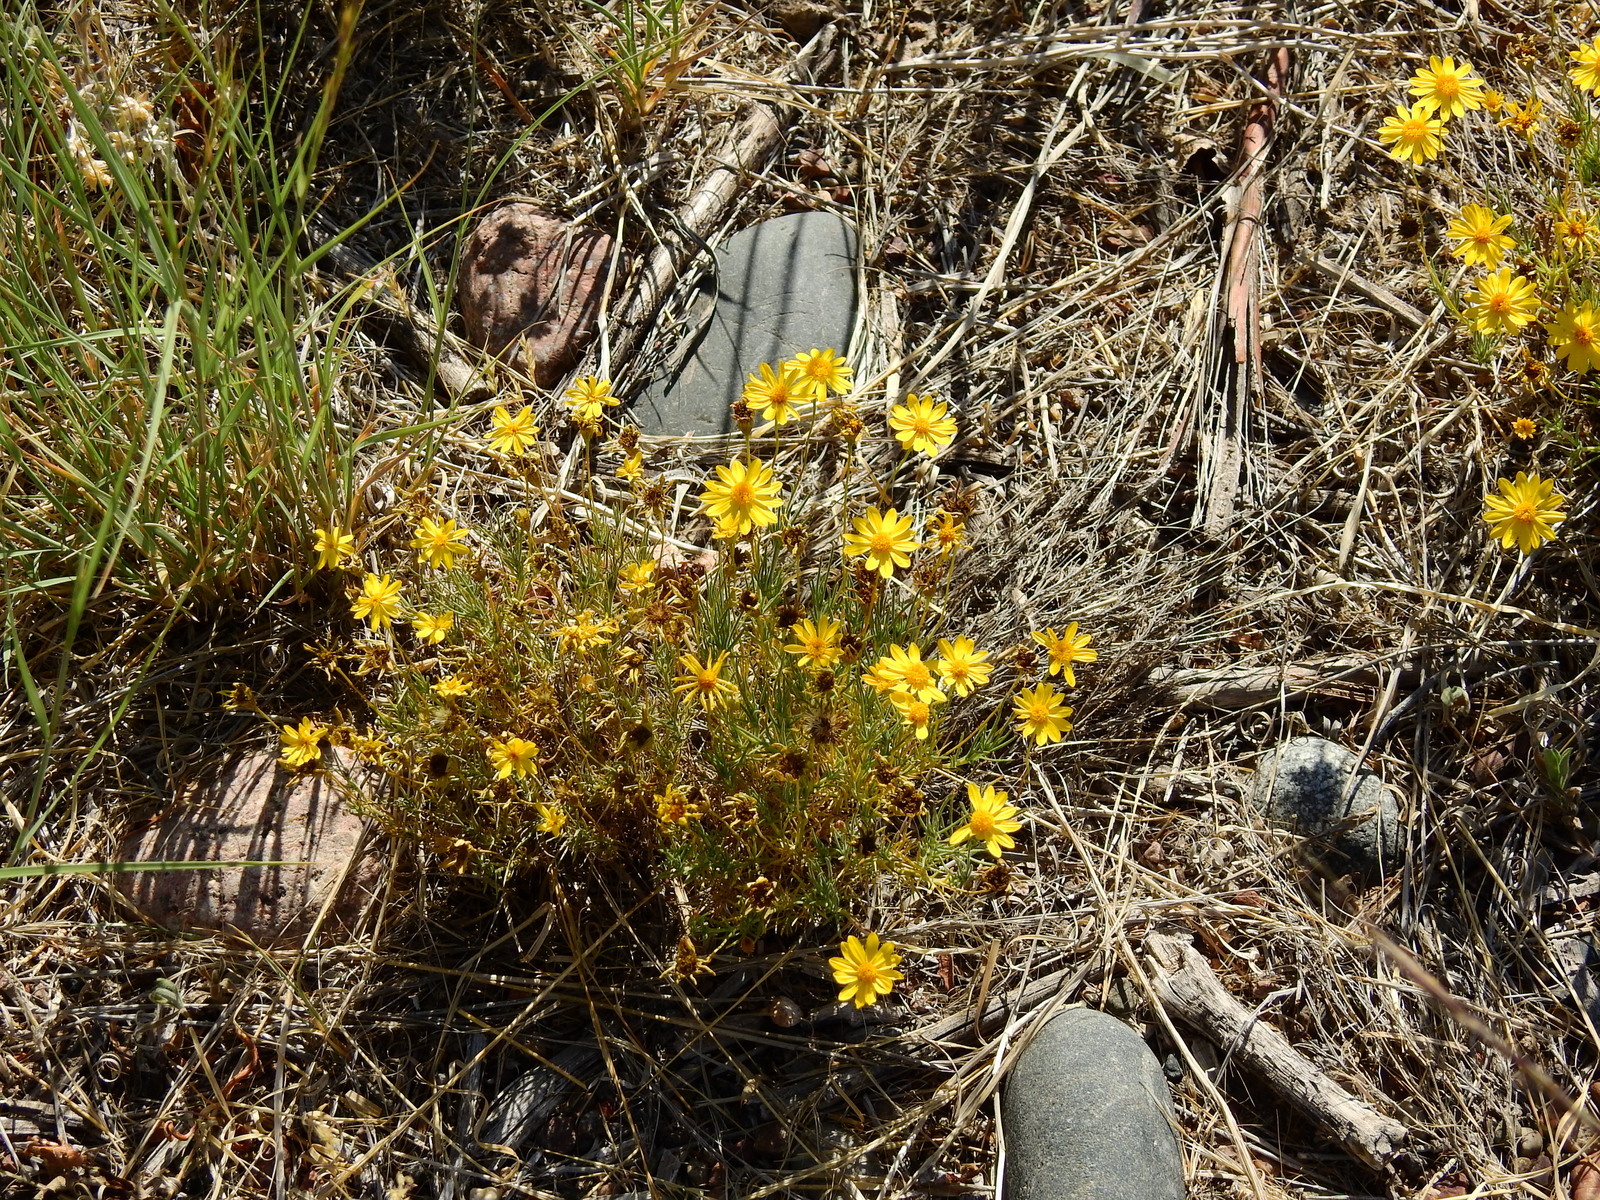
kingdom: Plantae
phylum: Tracheophyta
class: Magnoliopsida
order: Asterales
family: Asteraceae
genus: Thymophylla
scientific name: Thymophylla pentachaeta
